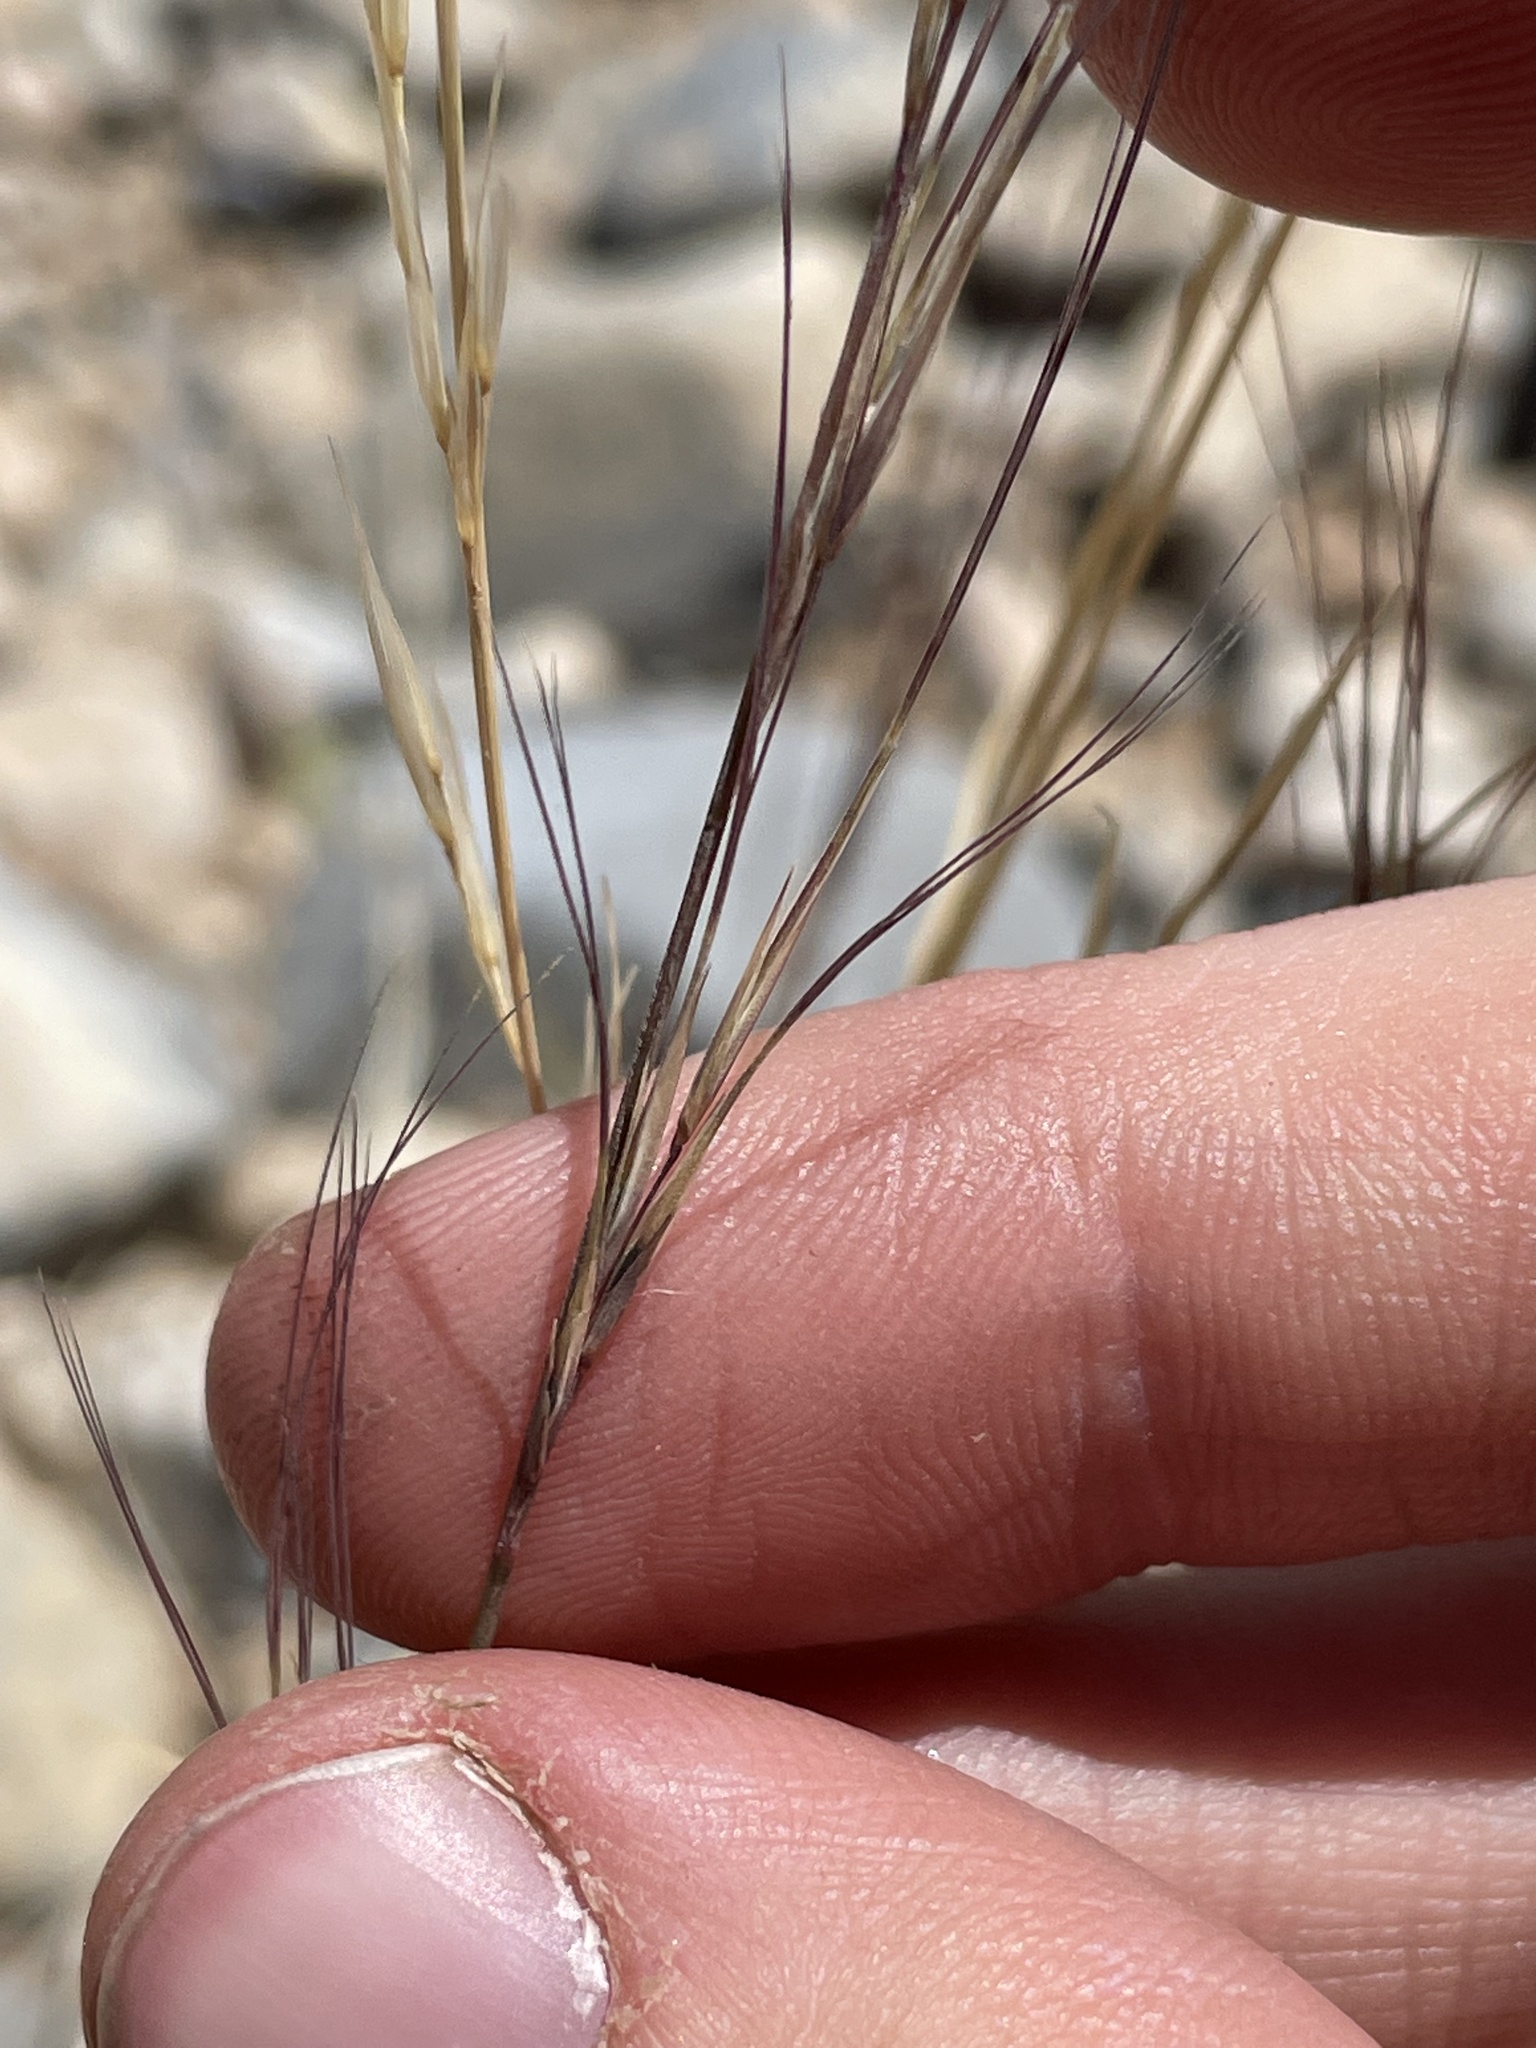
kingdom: Plantae
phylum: Tracheophyta
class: Liliopsida
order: Poales
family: Poaceae
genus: Aristida
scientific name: Aristida purpurea
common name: Purple threeawn
